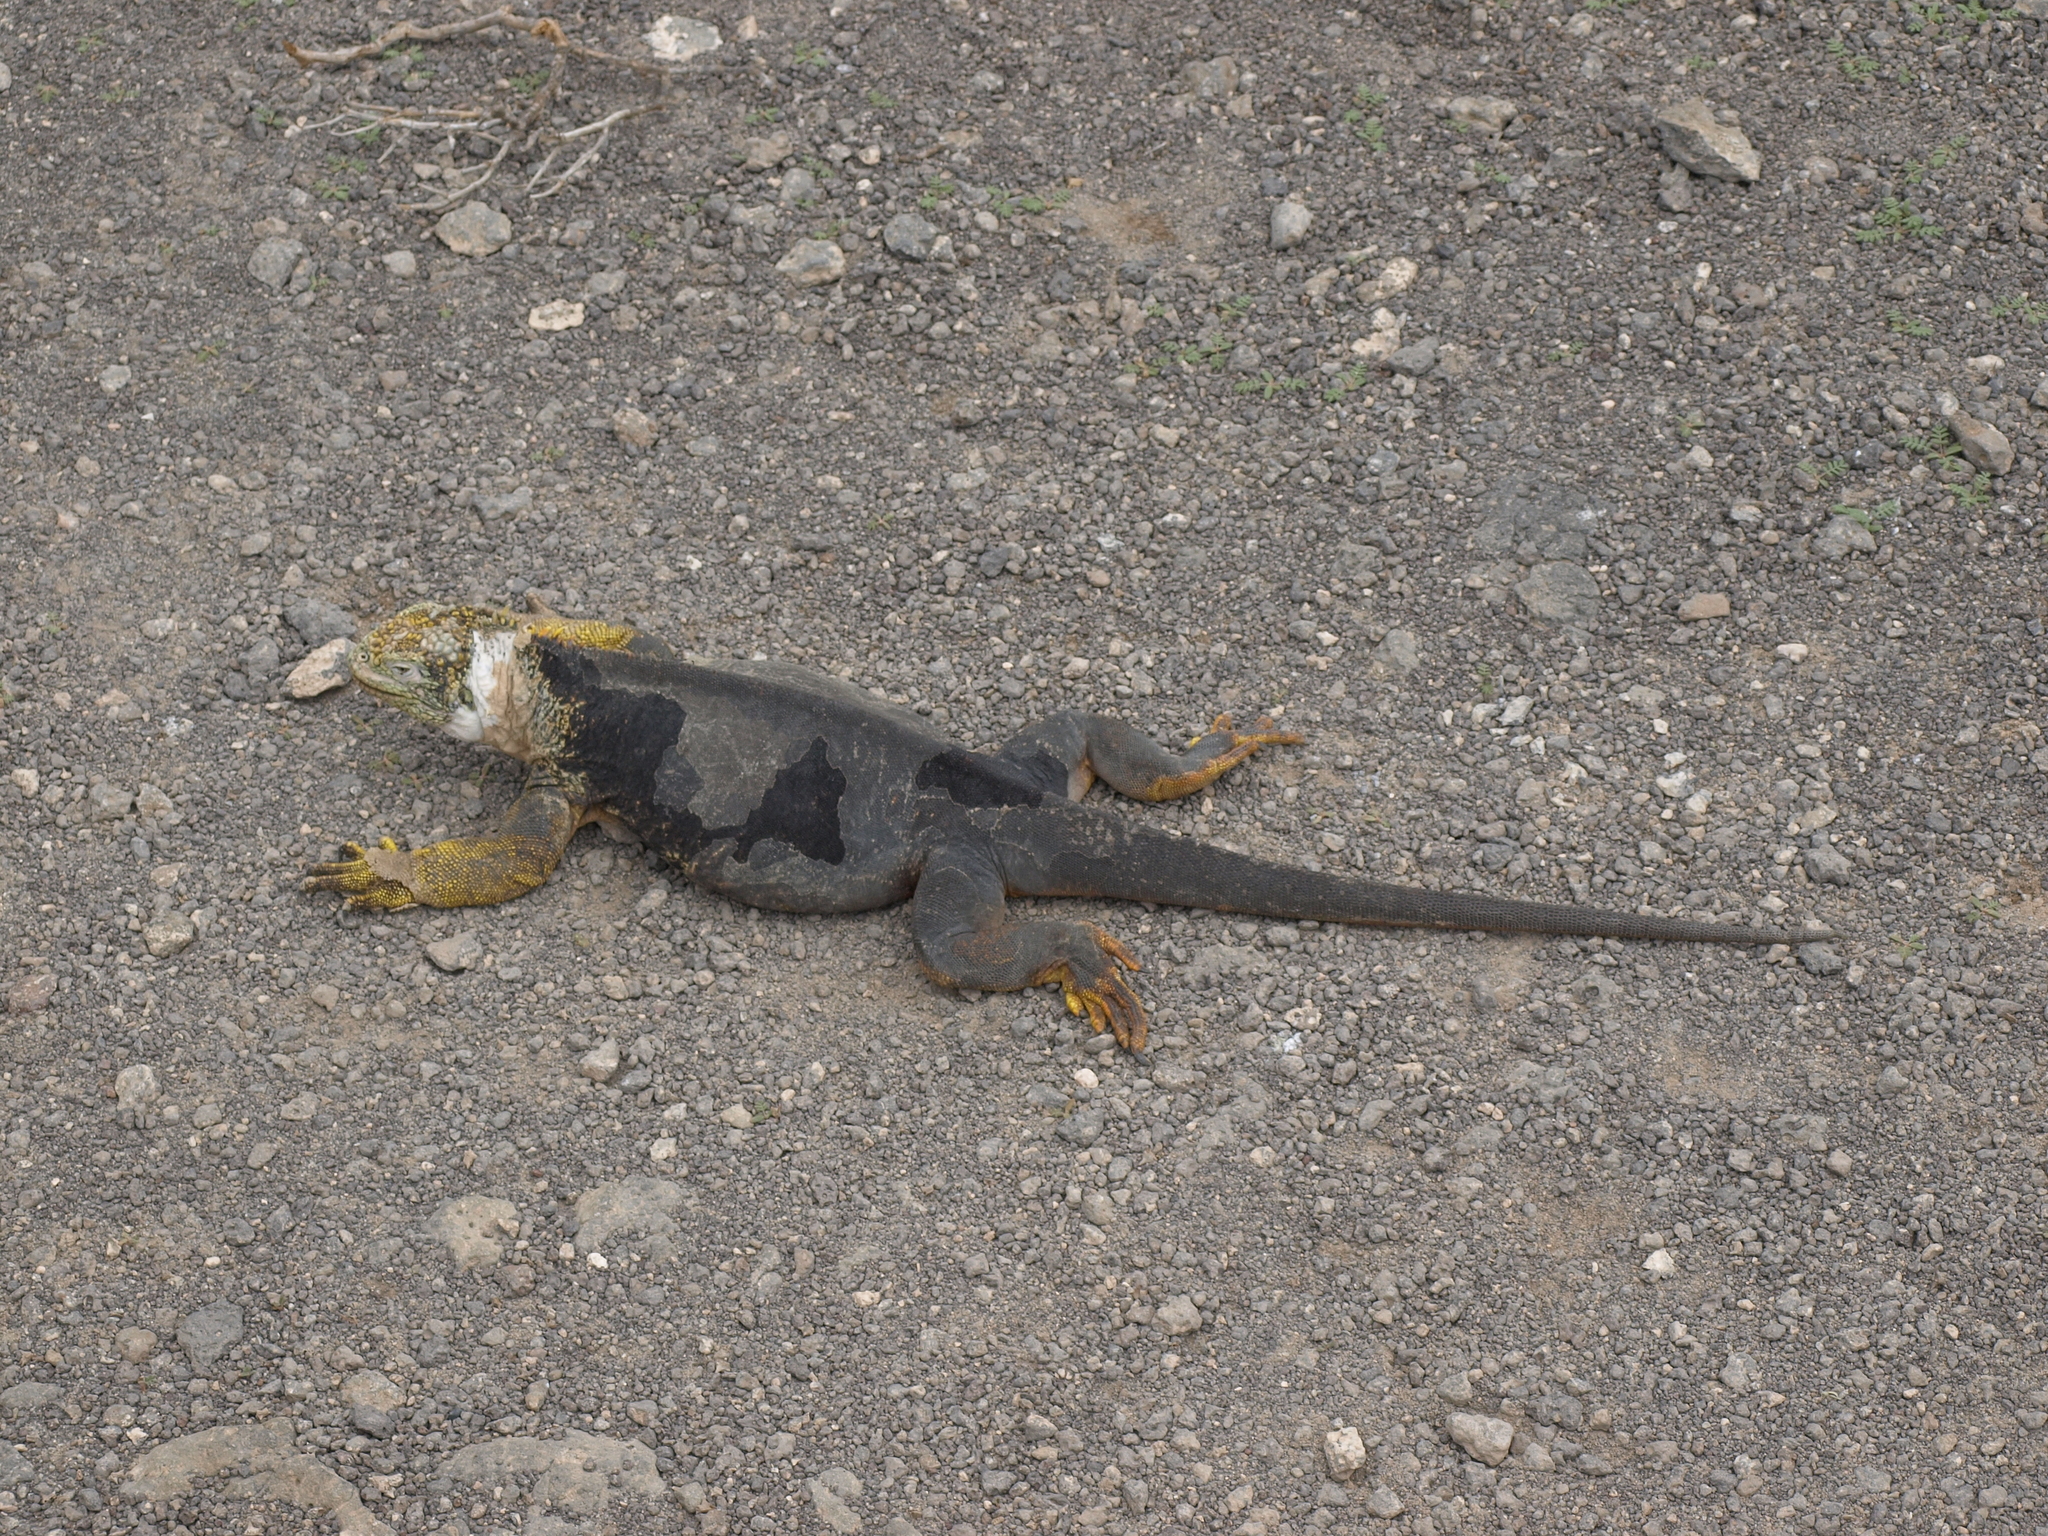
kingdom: Animalia
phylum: Chordata
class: Squamata
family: Iguanidae
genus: Conolophus
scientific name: Conolophus subcristatus
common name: Galapagos land iguana
